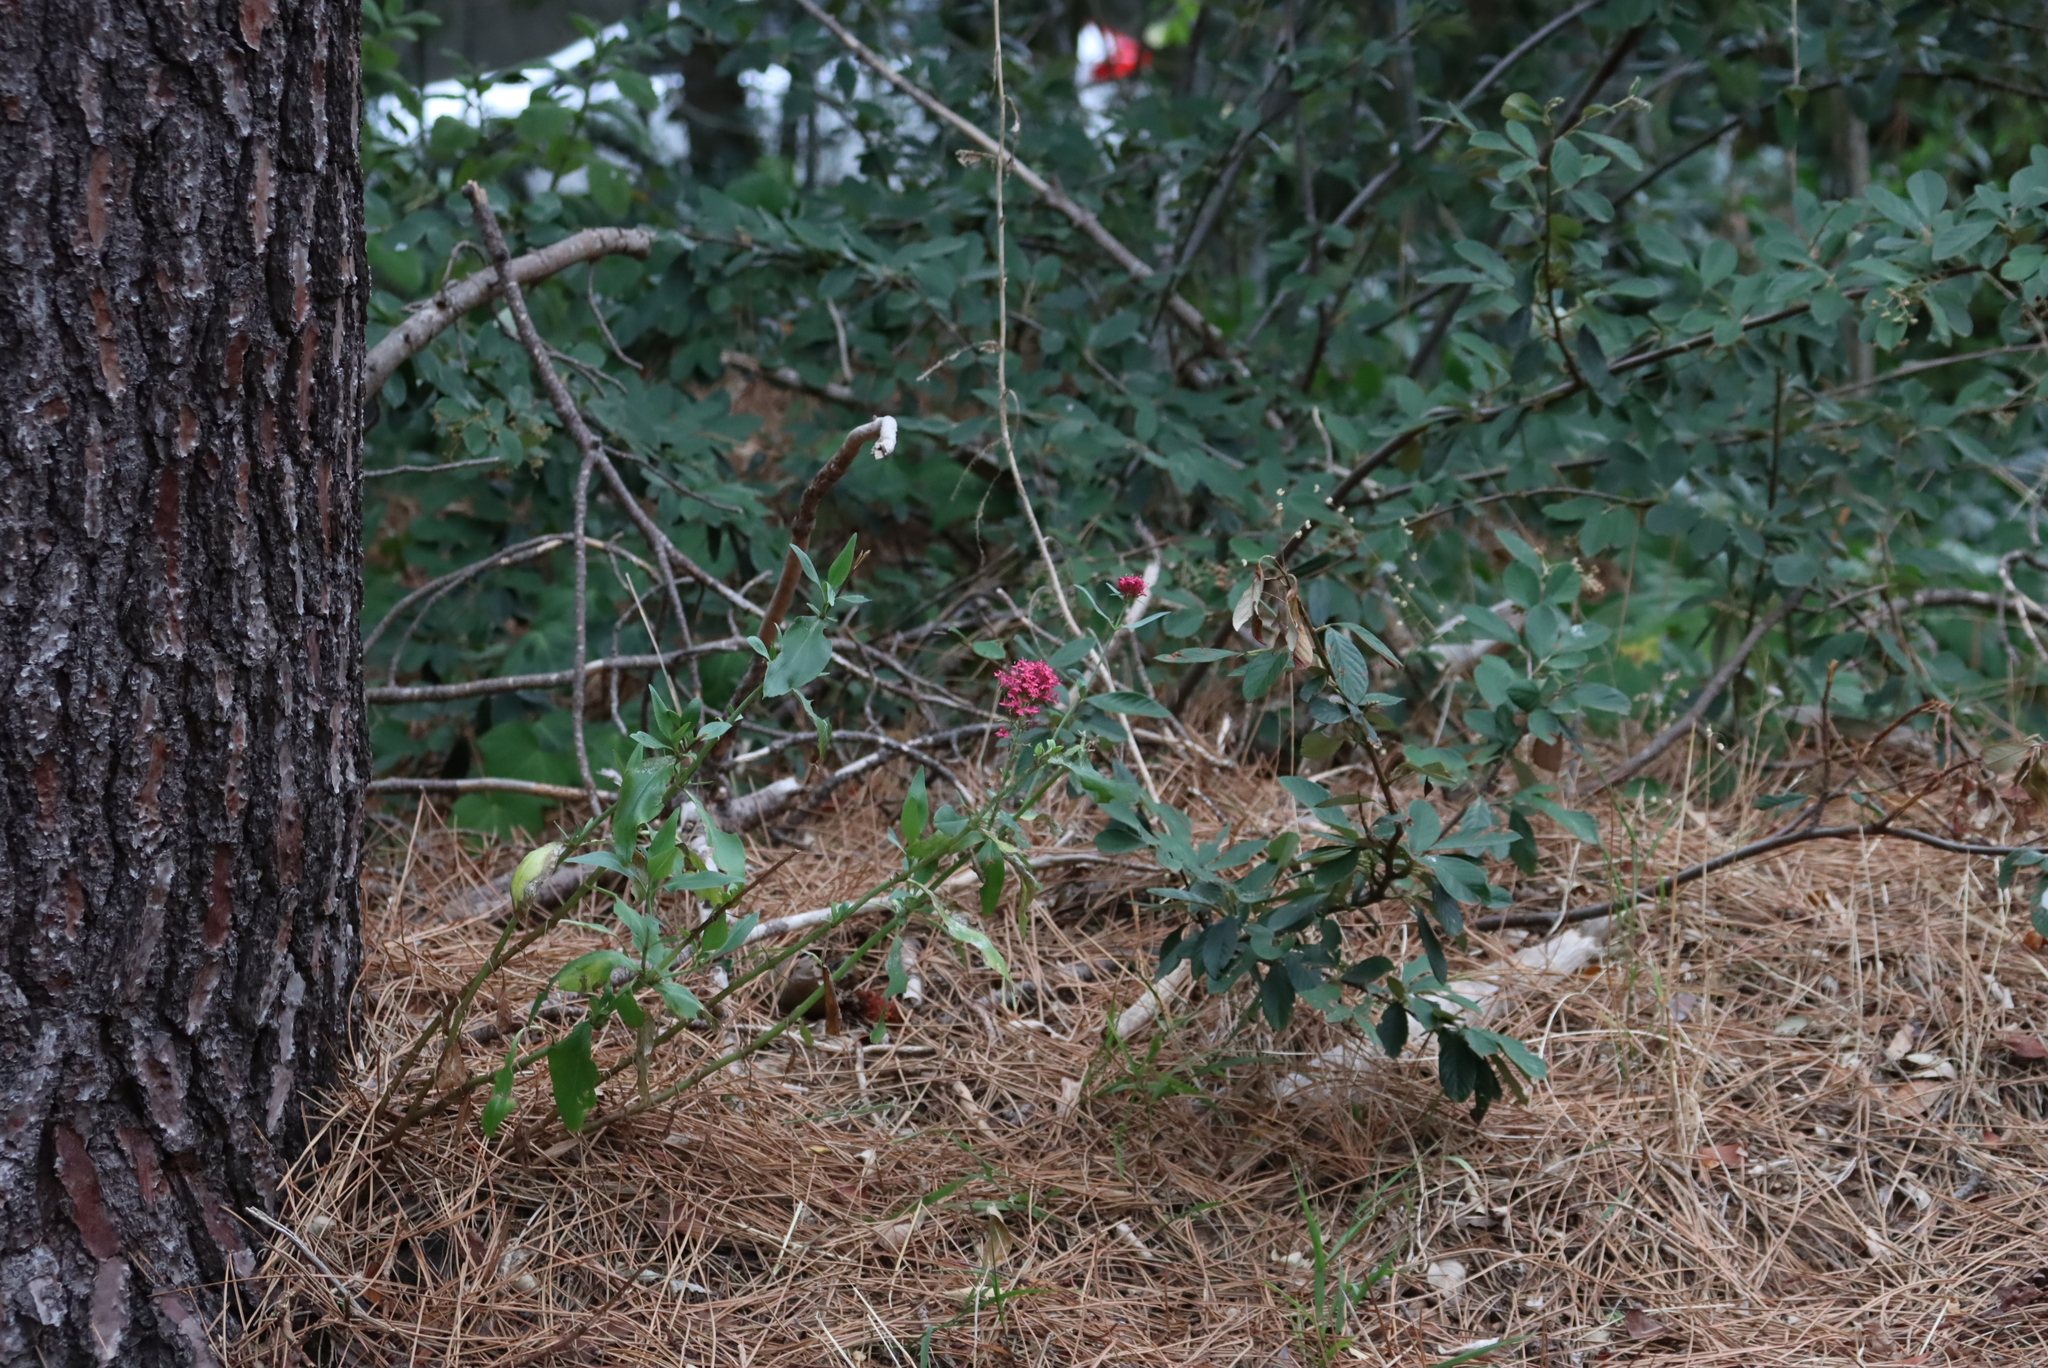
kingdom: Plantae
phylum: Tracheophyta
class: Magnoliopsida
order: Dipsacales
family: Caprifoliaceae
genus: Centranthus
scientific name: Centranthus ruber
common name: Red valerian
